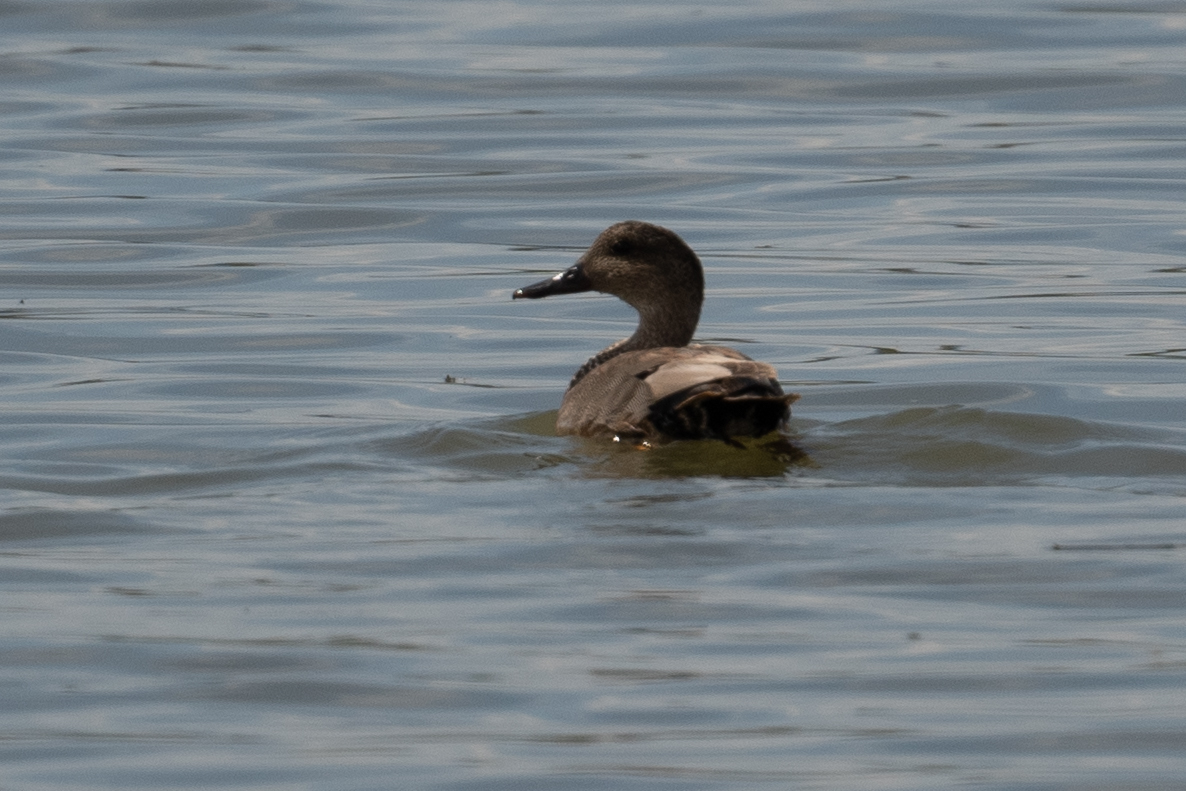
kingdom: Animalia
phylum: Chordata
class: Aves
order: Anseriformes
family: Anatidae
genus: Mareca
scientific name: Mareca strepera
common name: Gadwall
